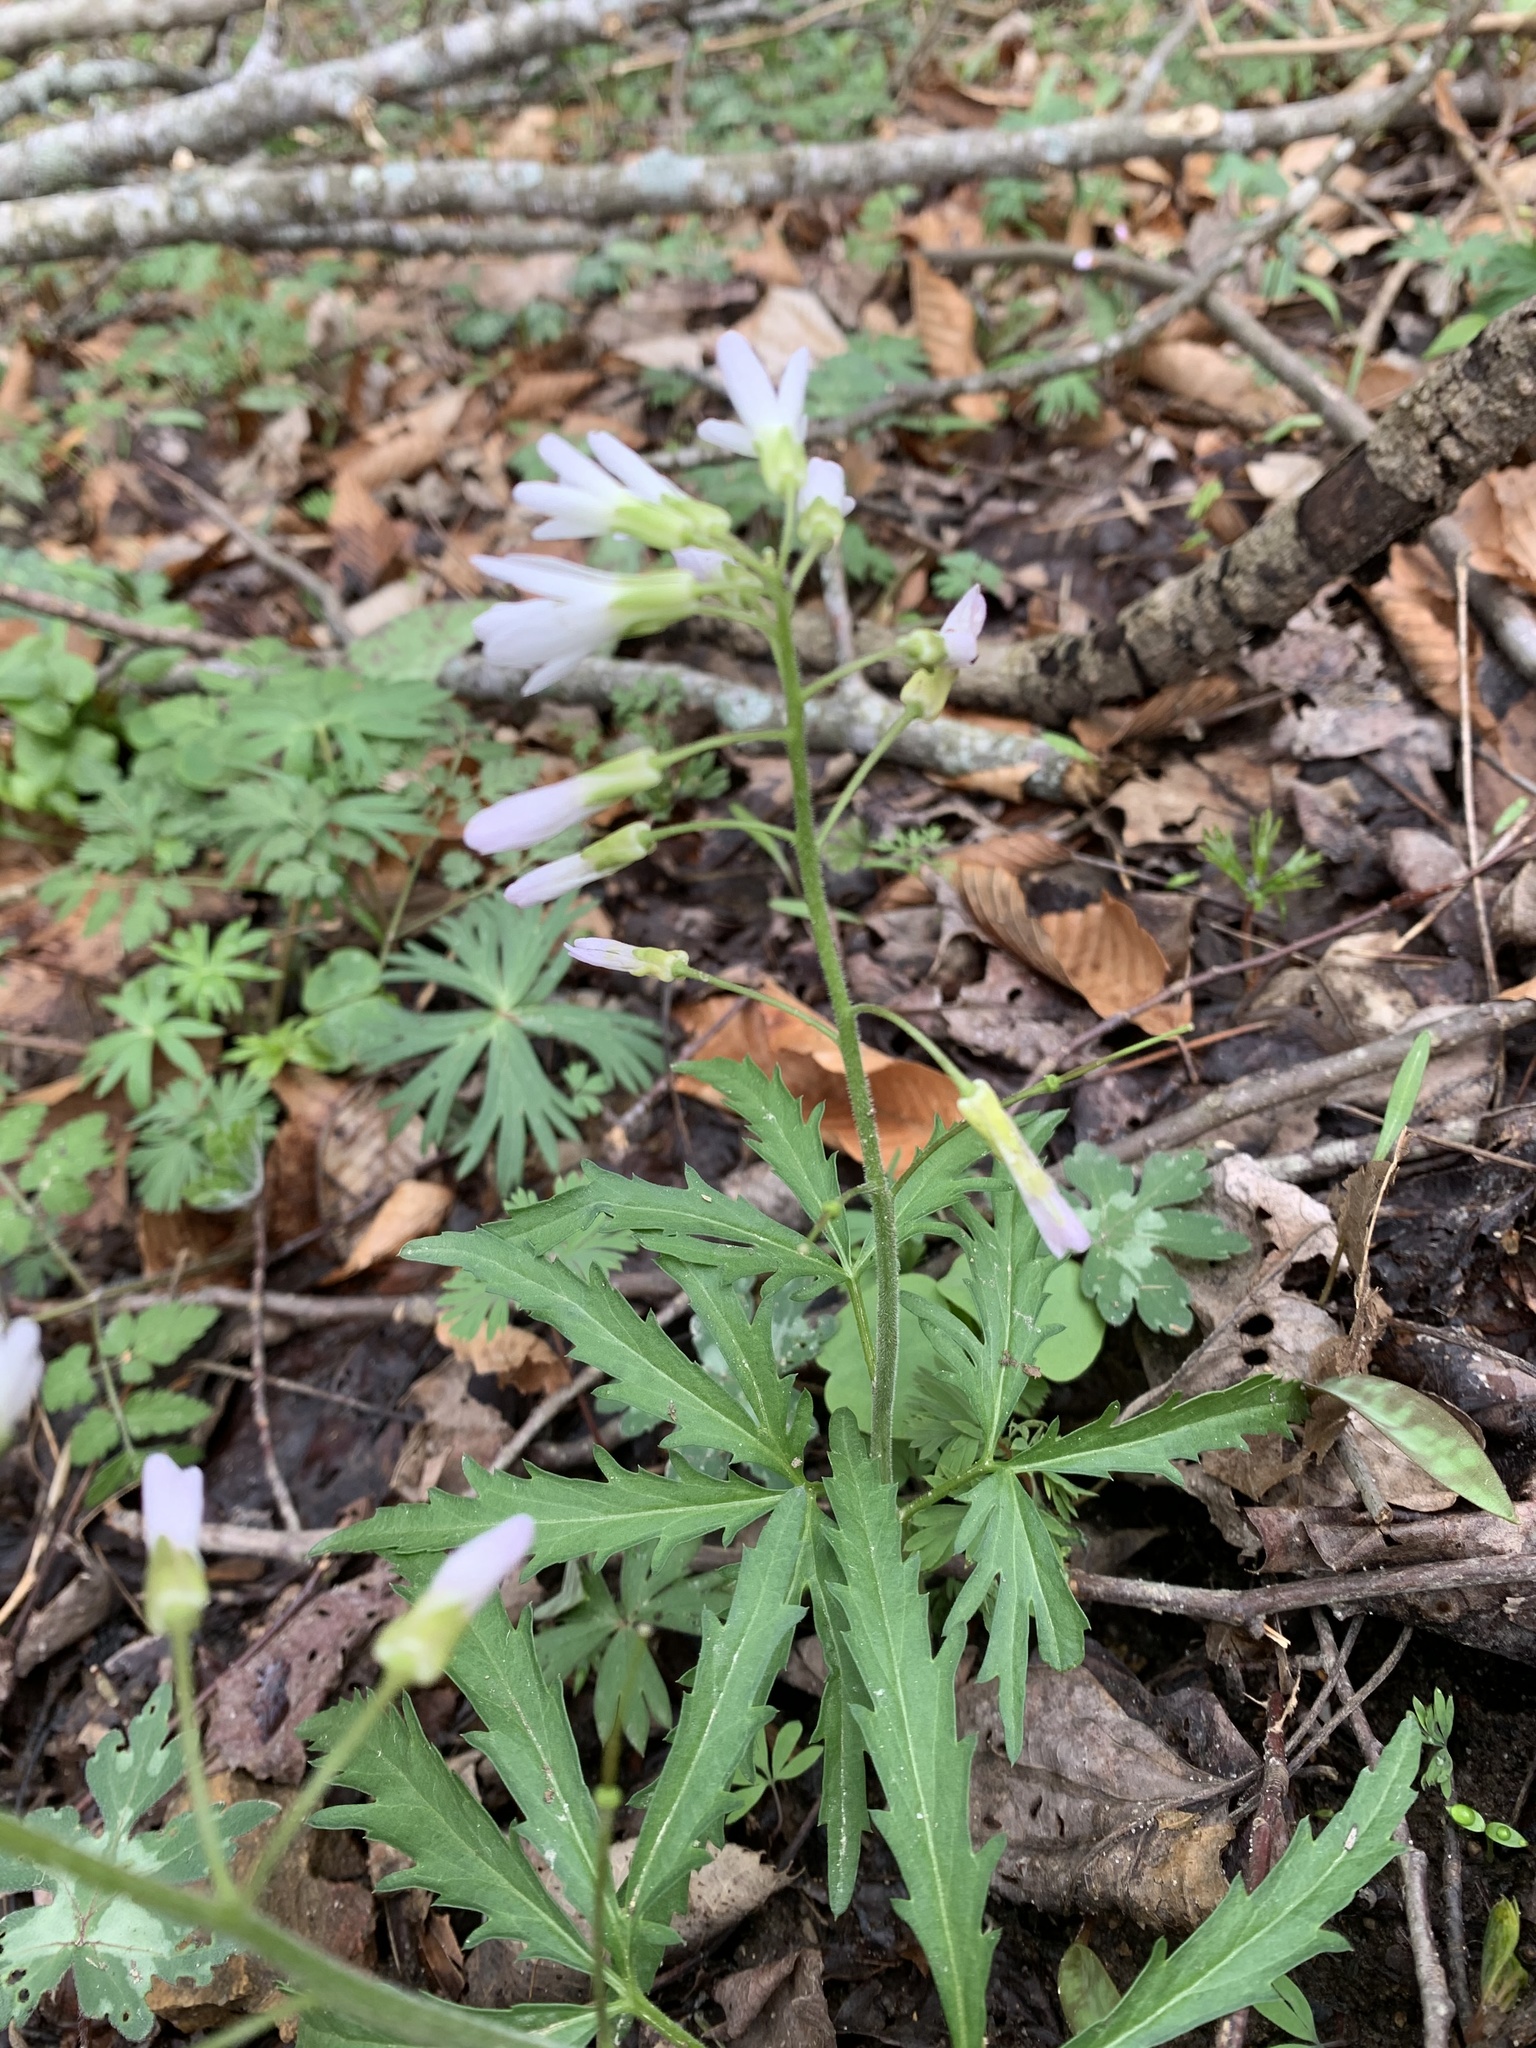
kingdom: Plantae
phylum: Tracheophyta
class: Magnoliopsida
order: Brassicales
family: Brassicaceae
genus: Cardamine
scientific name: Cardamine concatenata
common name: Cut-leaf toothcup
